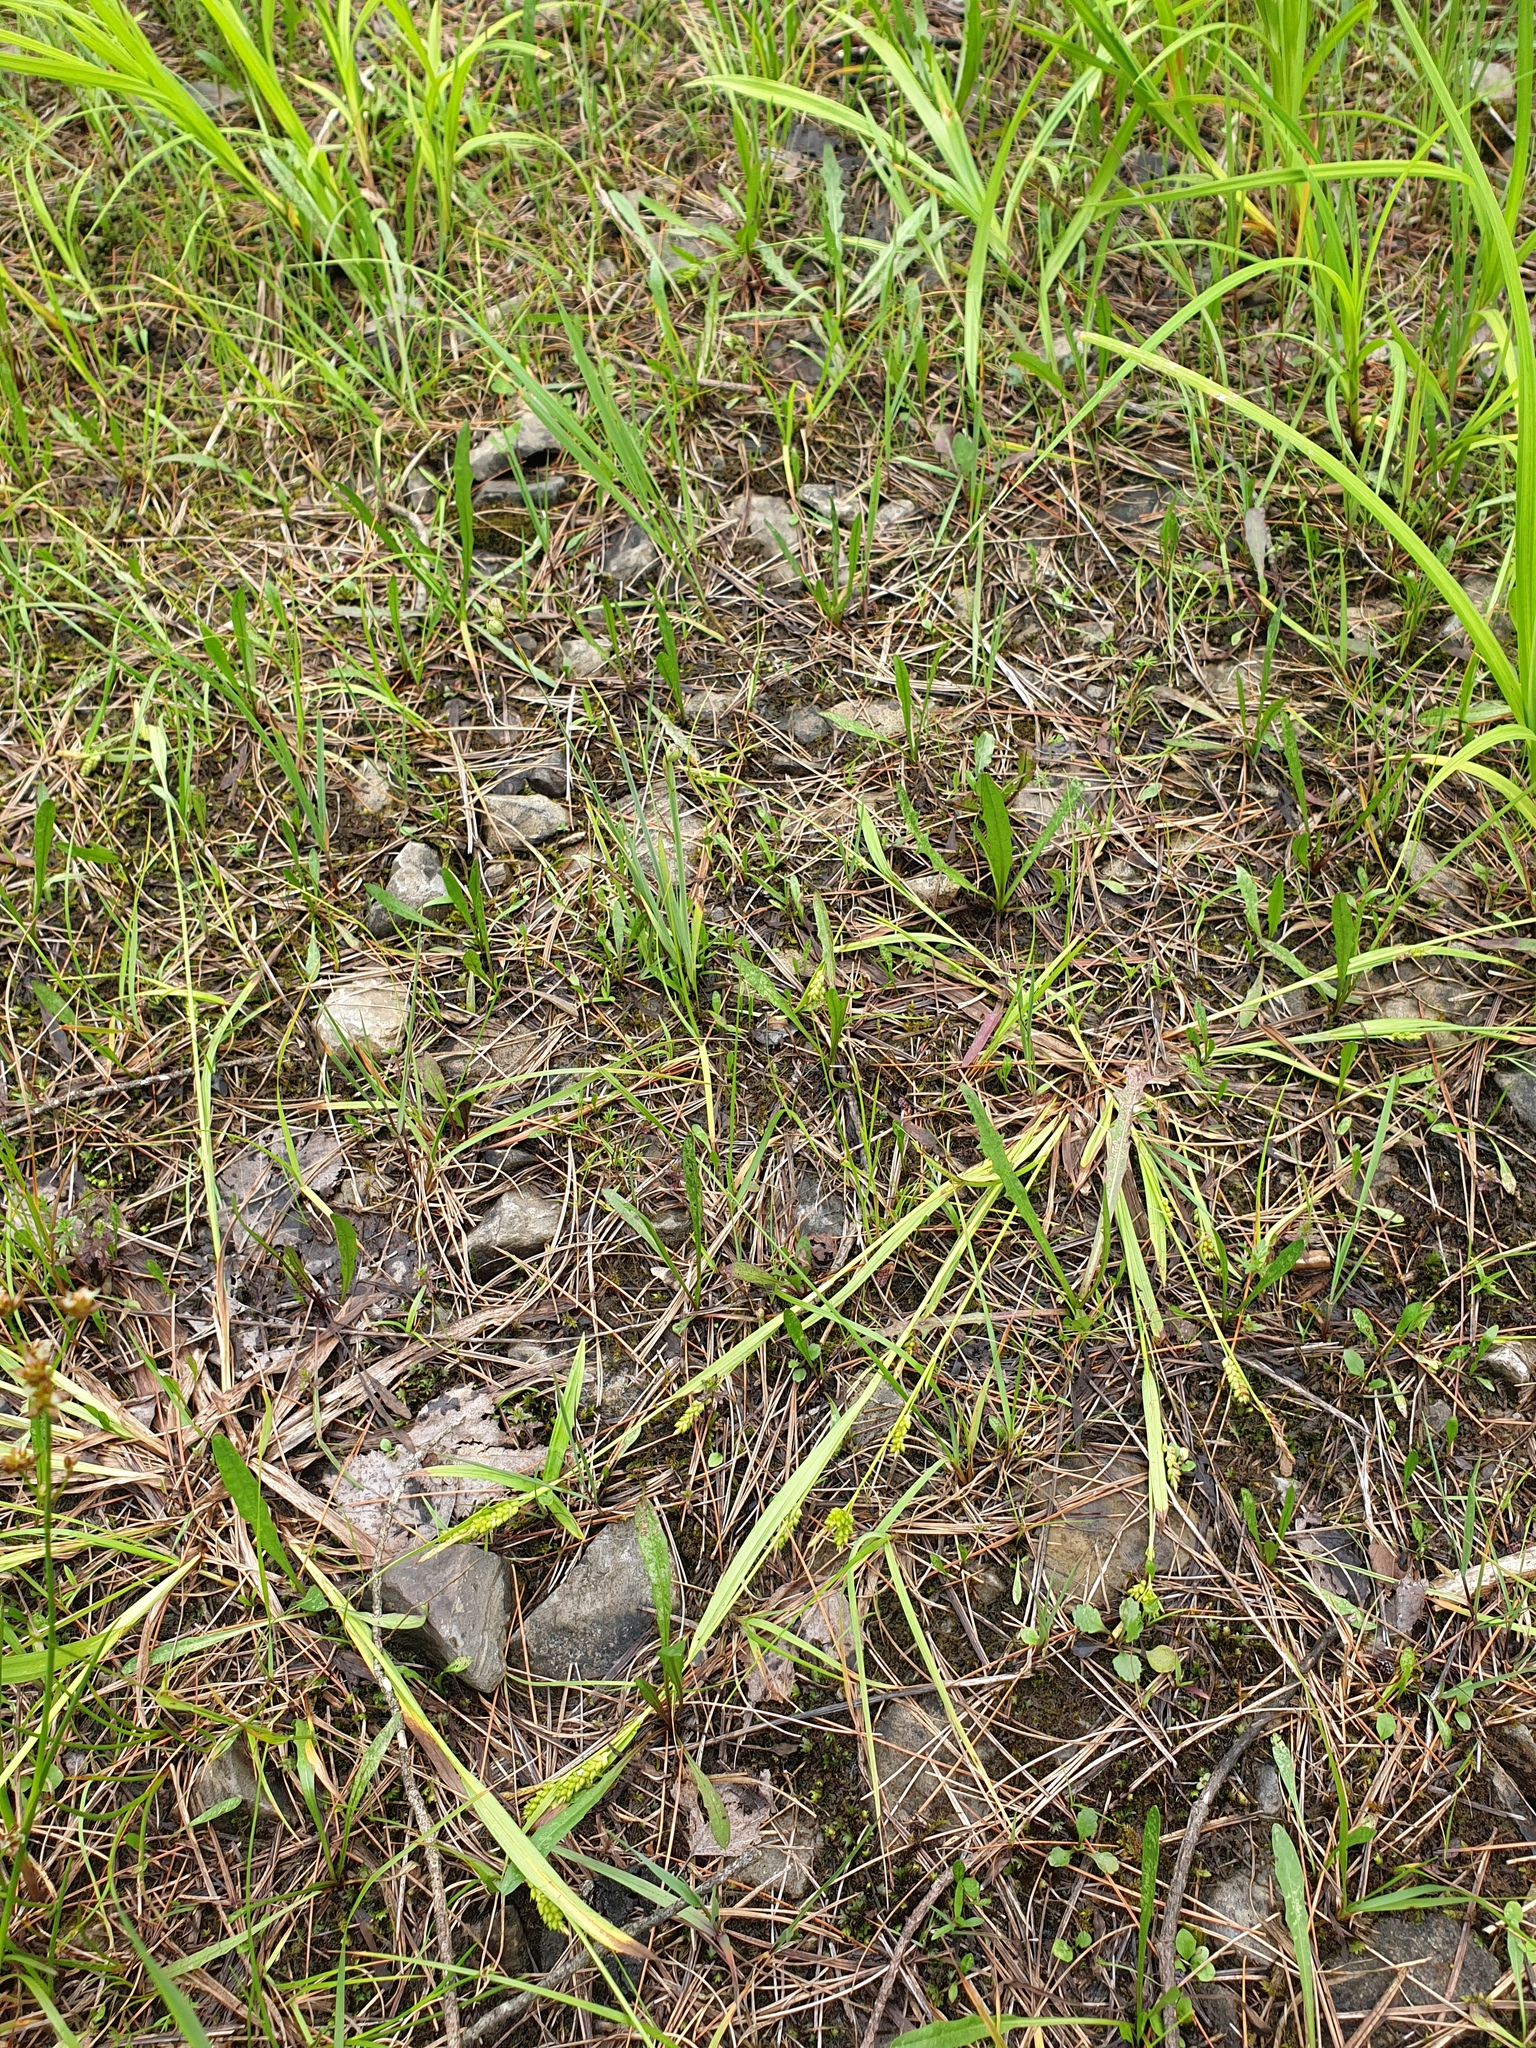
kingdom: Plantae
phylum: Tracheophyta
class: Liliopsida
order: Poales
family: Cyperaceae
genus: Carex
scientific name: Carex granularis
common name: Granular sedge
